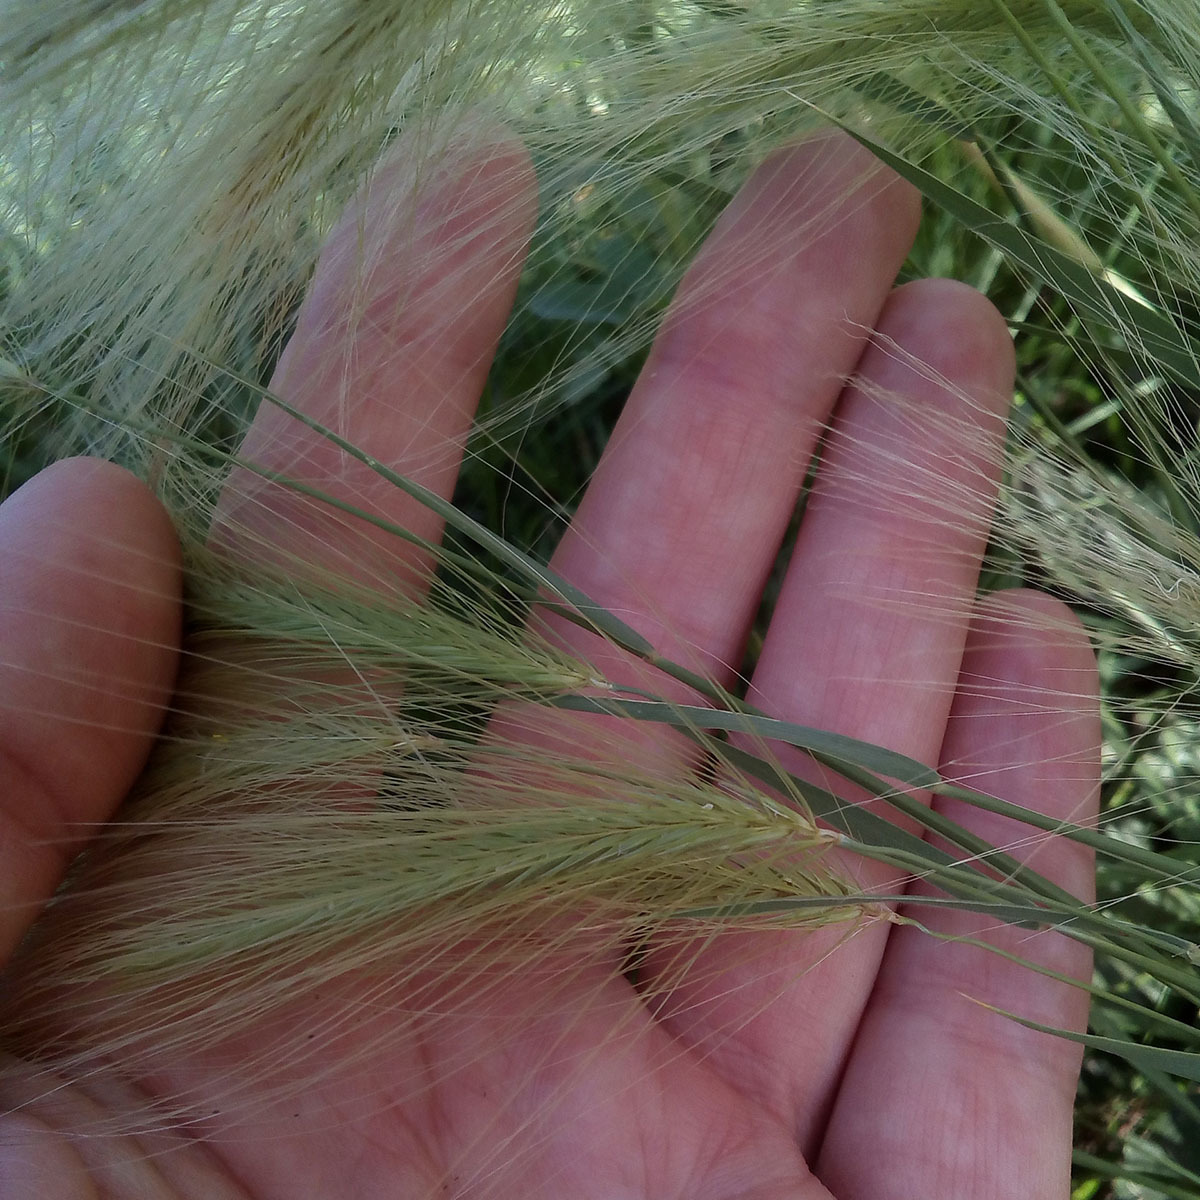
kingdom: Plantae
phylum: Tracheophyta
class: Liliopsida
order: Poales
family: Poaceae
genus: Hordeum
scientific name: Hordeum jubatum
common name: Foxtail barley
